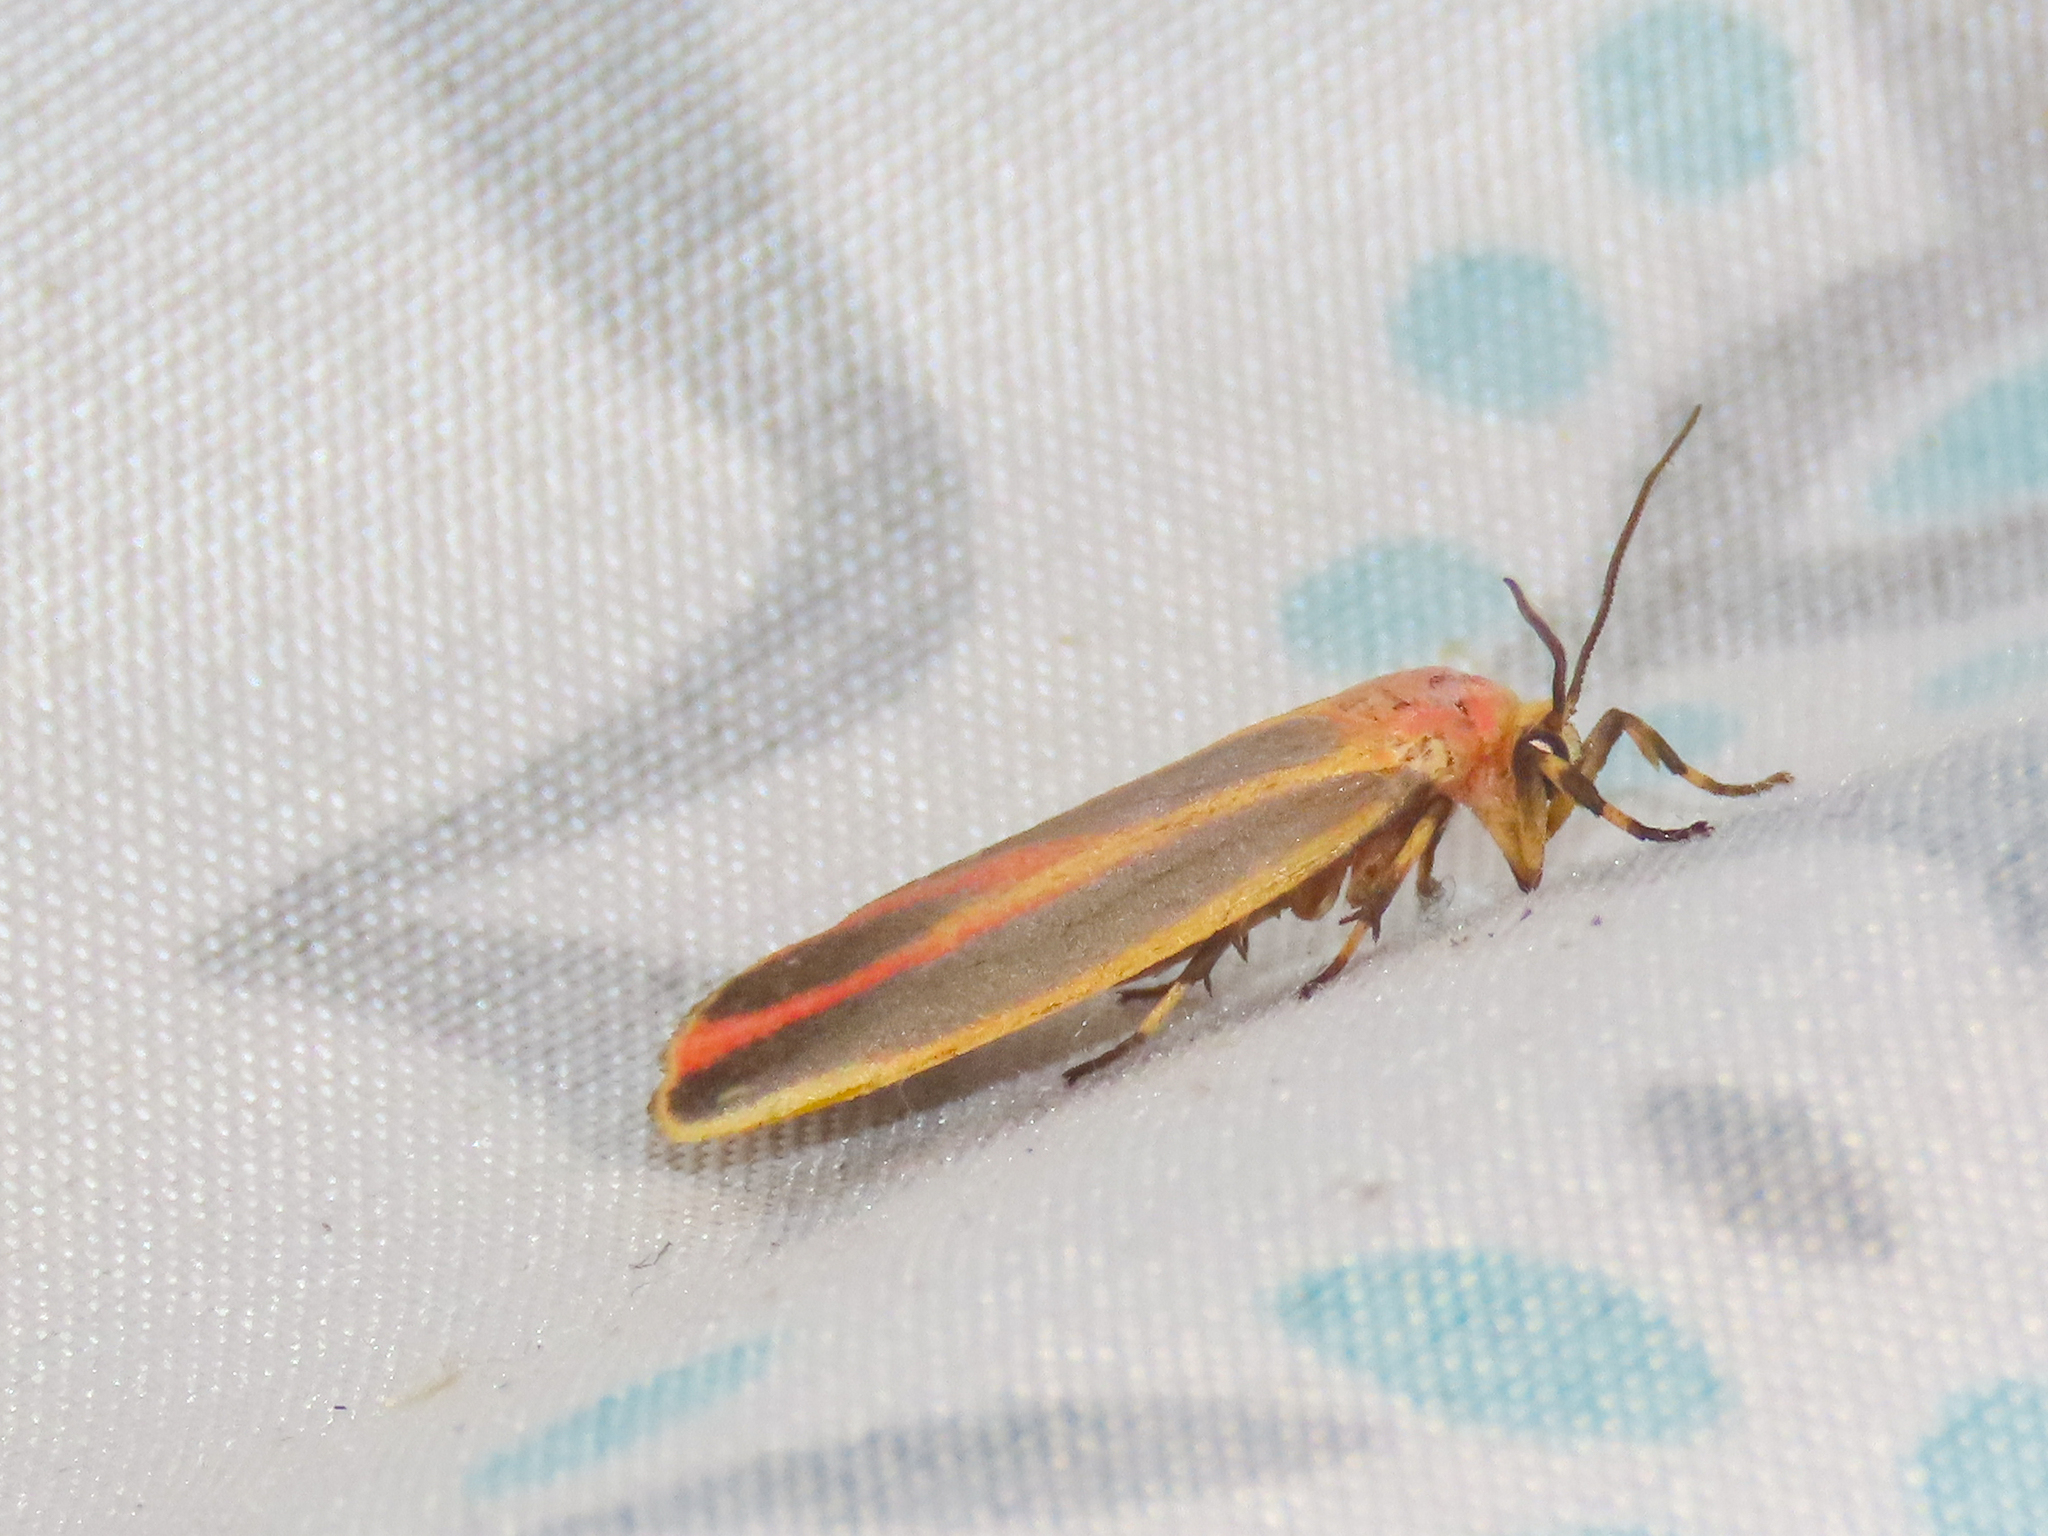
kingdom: Animalia
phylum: Arthropoda
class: Insecta
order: Lepidoptera
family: Erebidae
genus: Hypoprepia
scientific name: Hypoprepia fucosa
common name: Painted lichen moth
